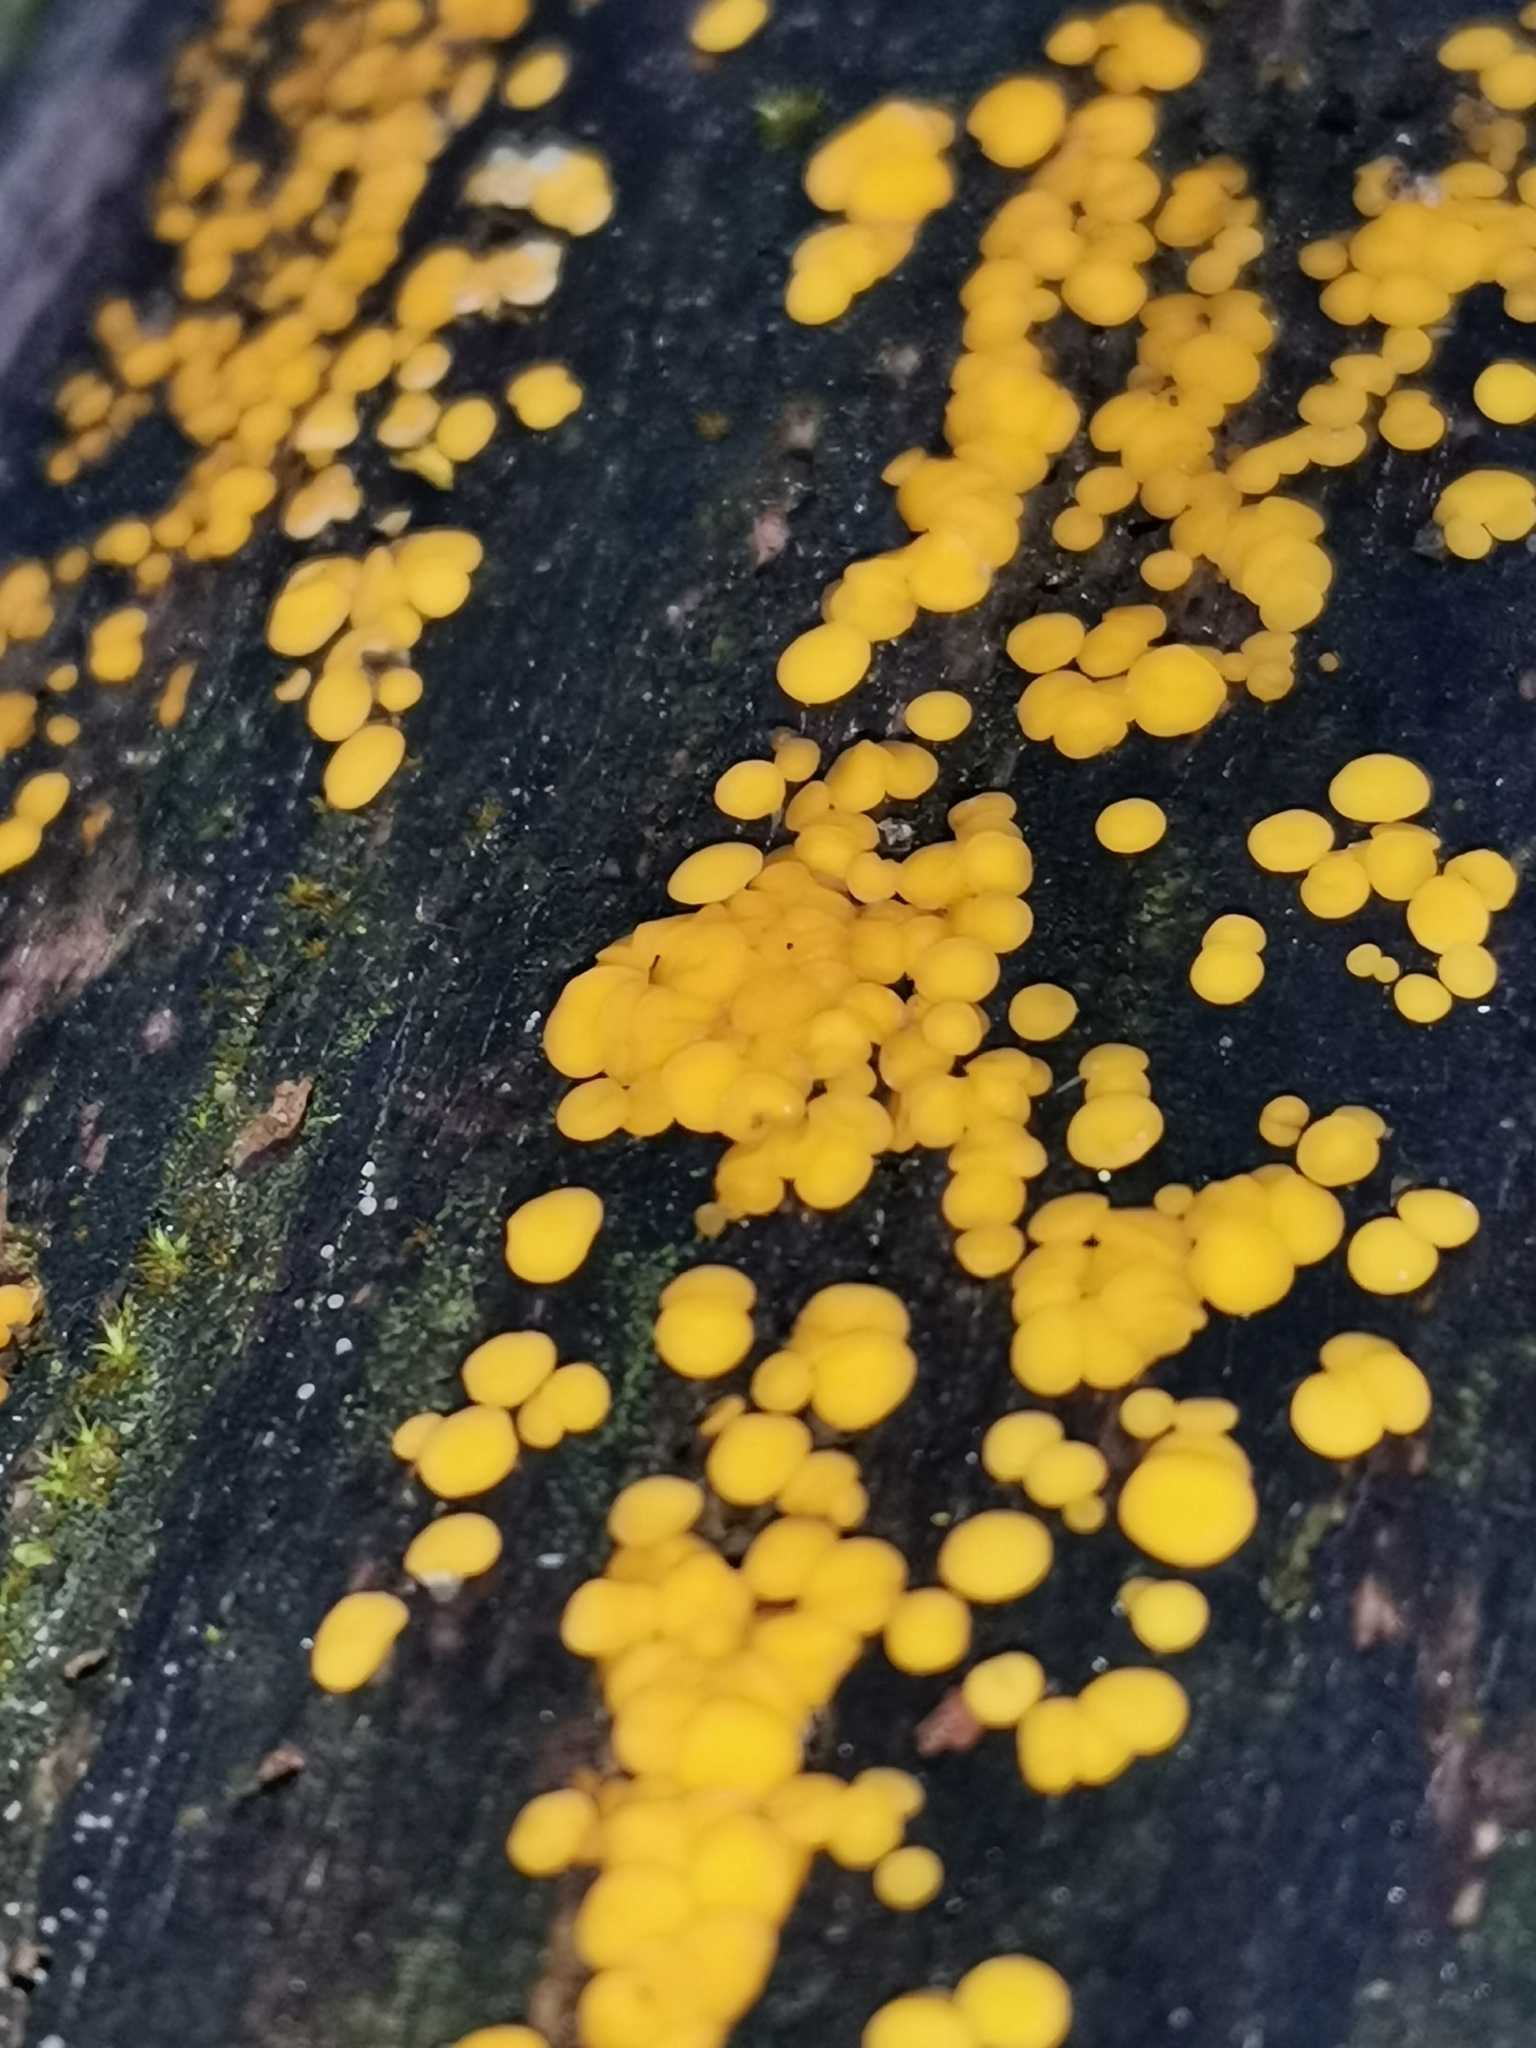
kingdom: Fungi
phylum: Ascomycota
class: Leotiomycetes
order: Helotiales
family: Pezizellaceae
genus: Calycina
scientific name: Calycina citrina
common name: Yellow fairy cups
